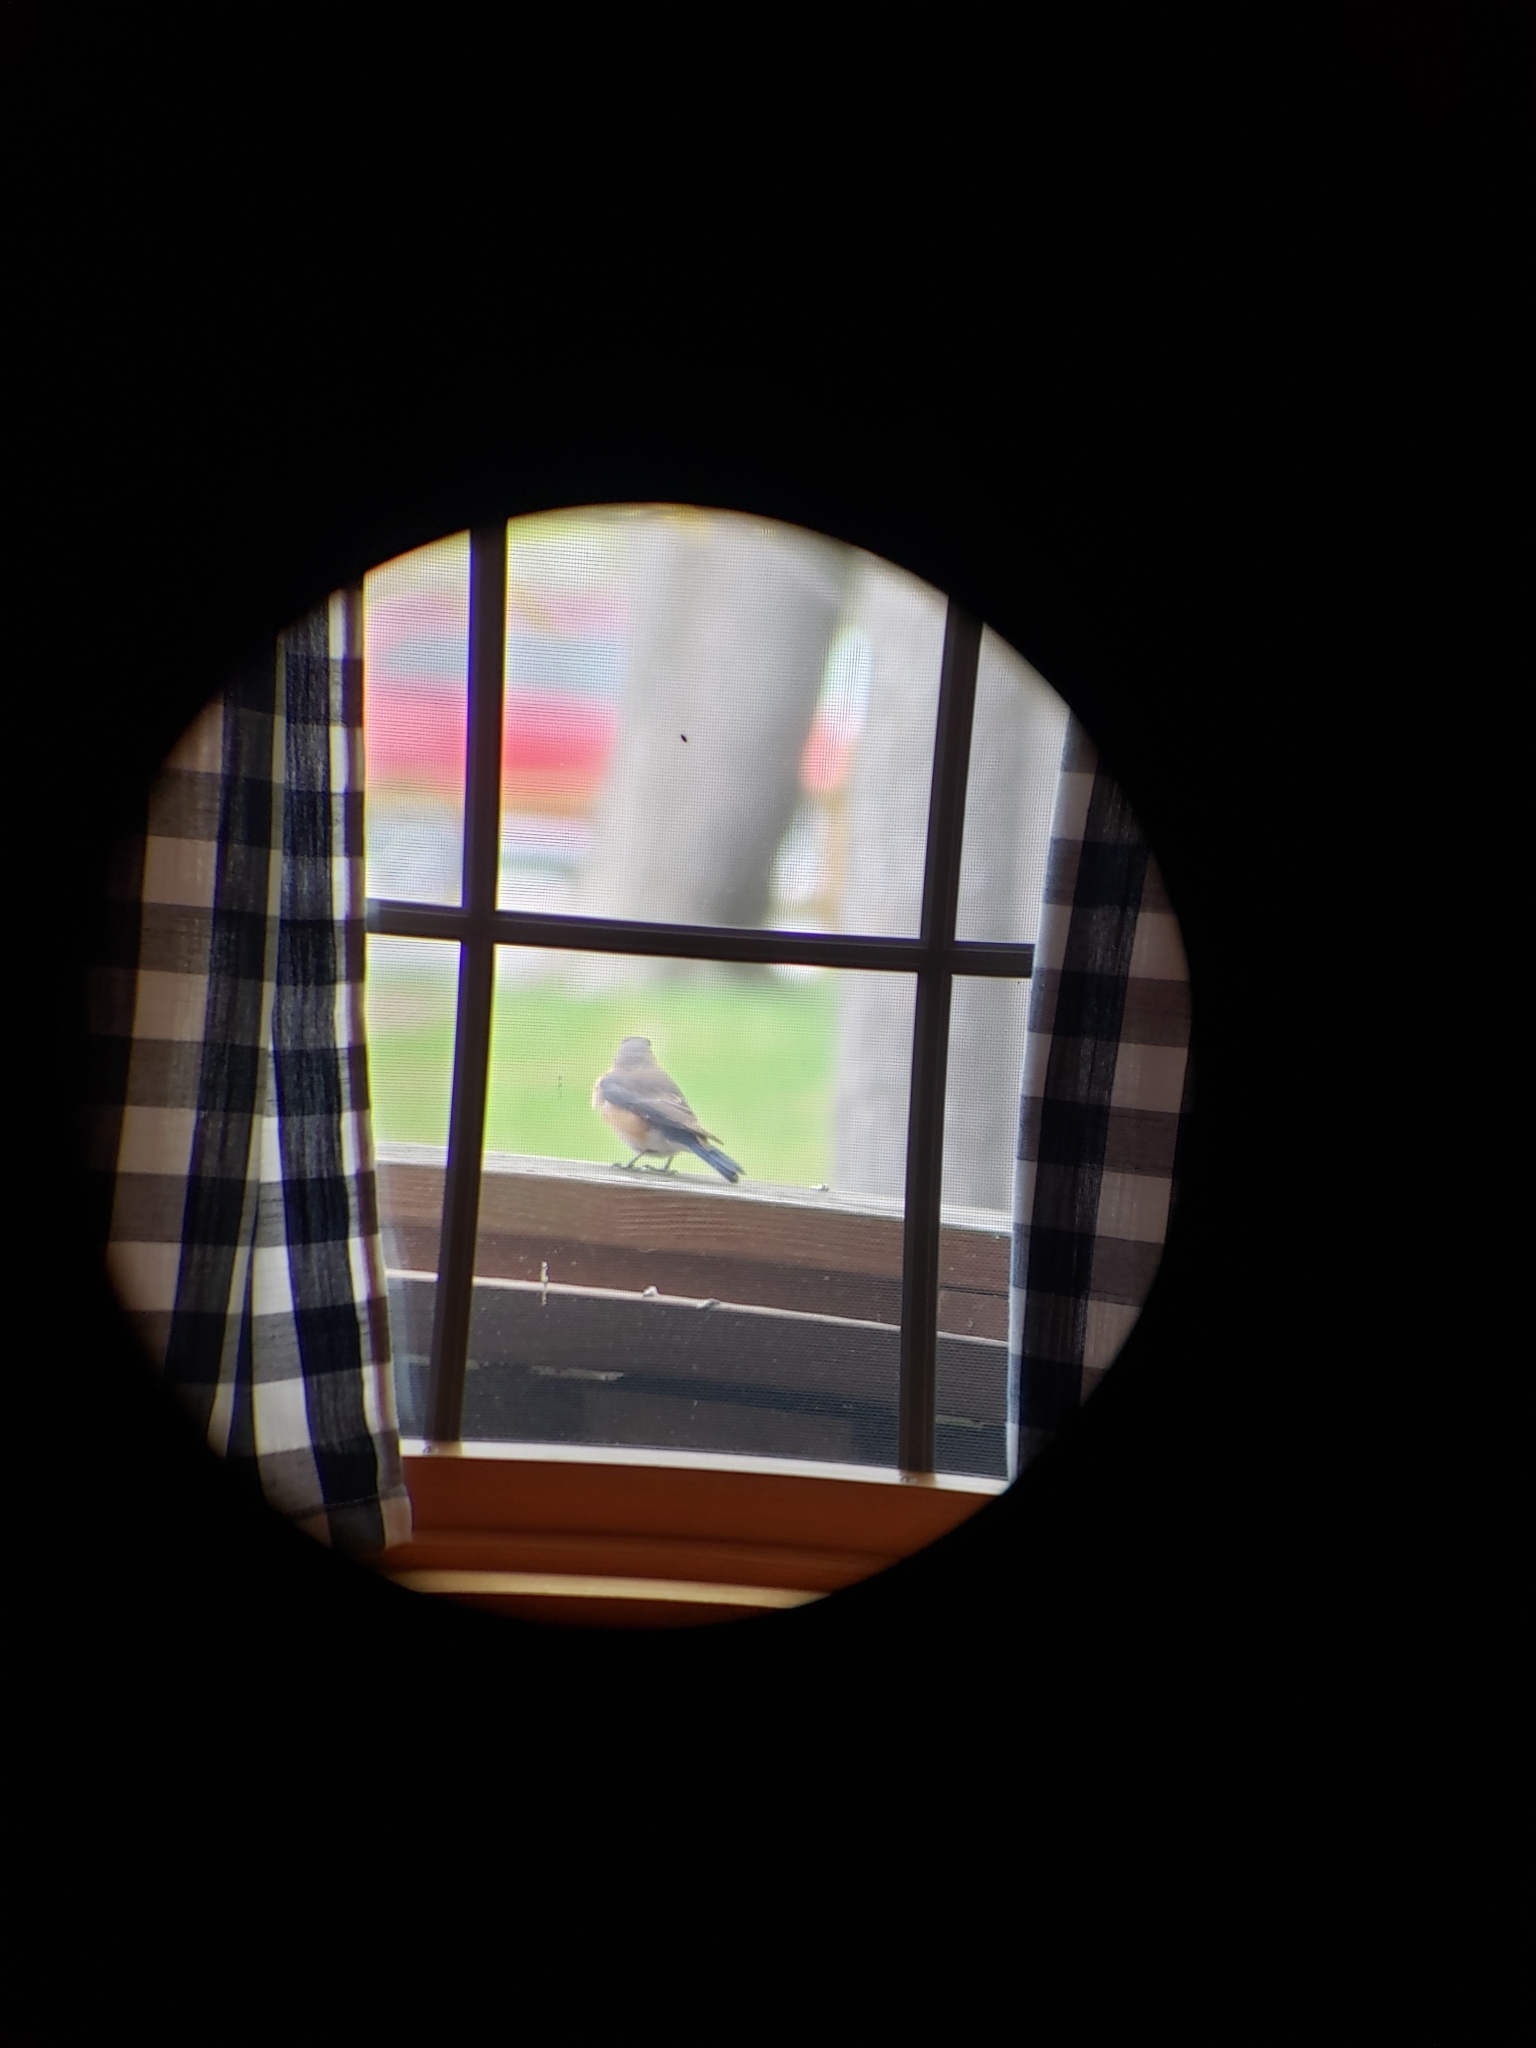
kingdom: Animalia
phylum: Chordata
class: Aves
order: Passeriformes
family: Turdidae
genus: Sialia
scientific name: Sialia sialis
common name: Eastern bluebird
